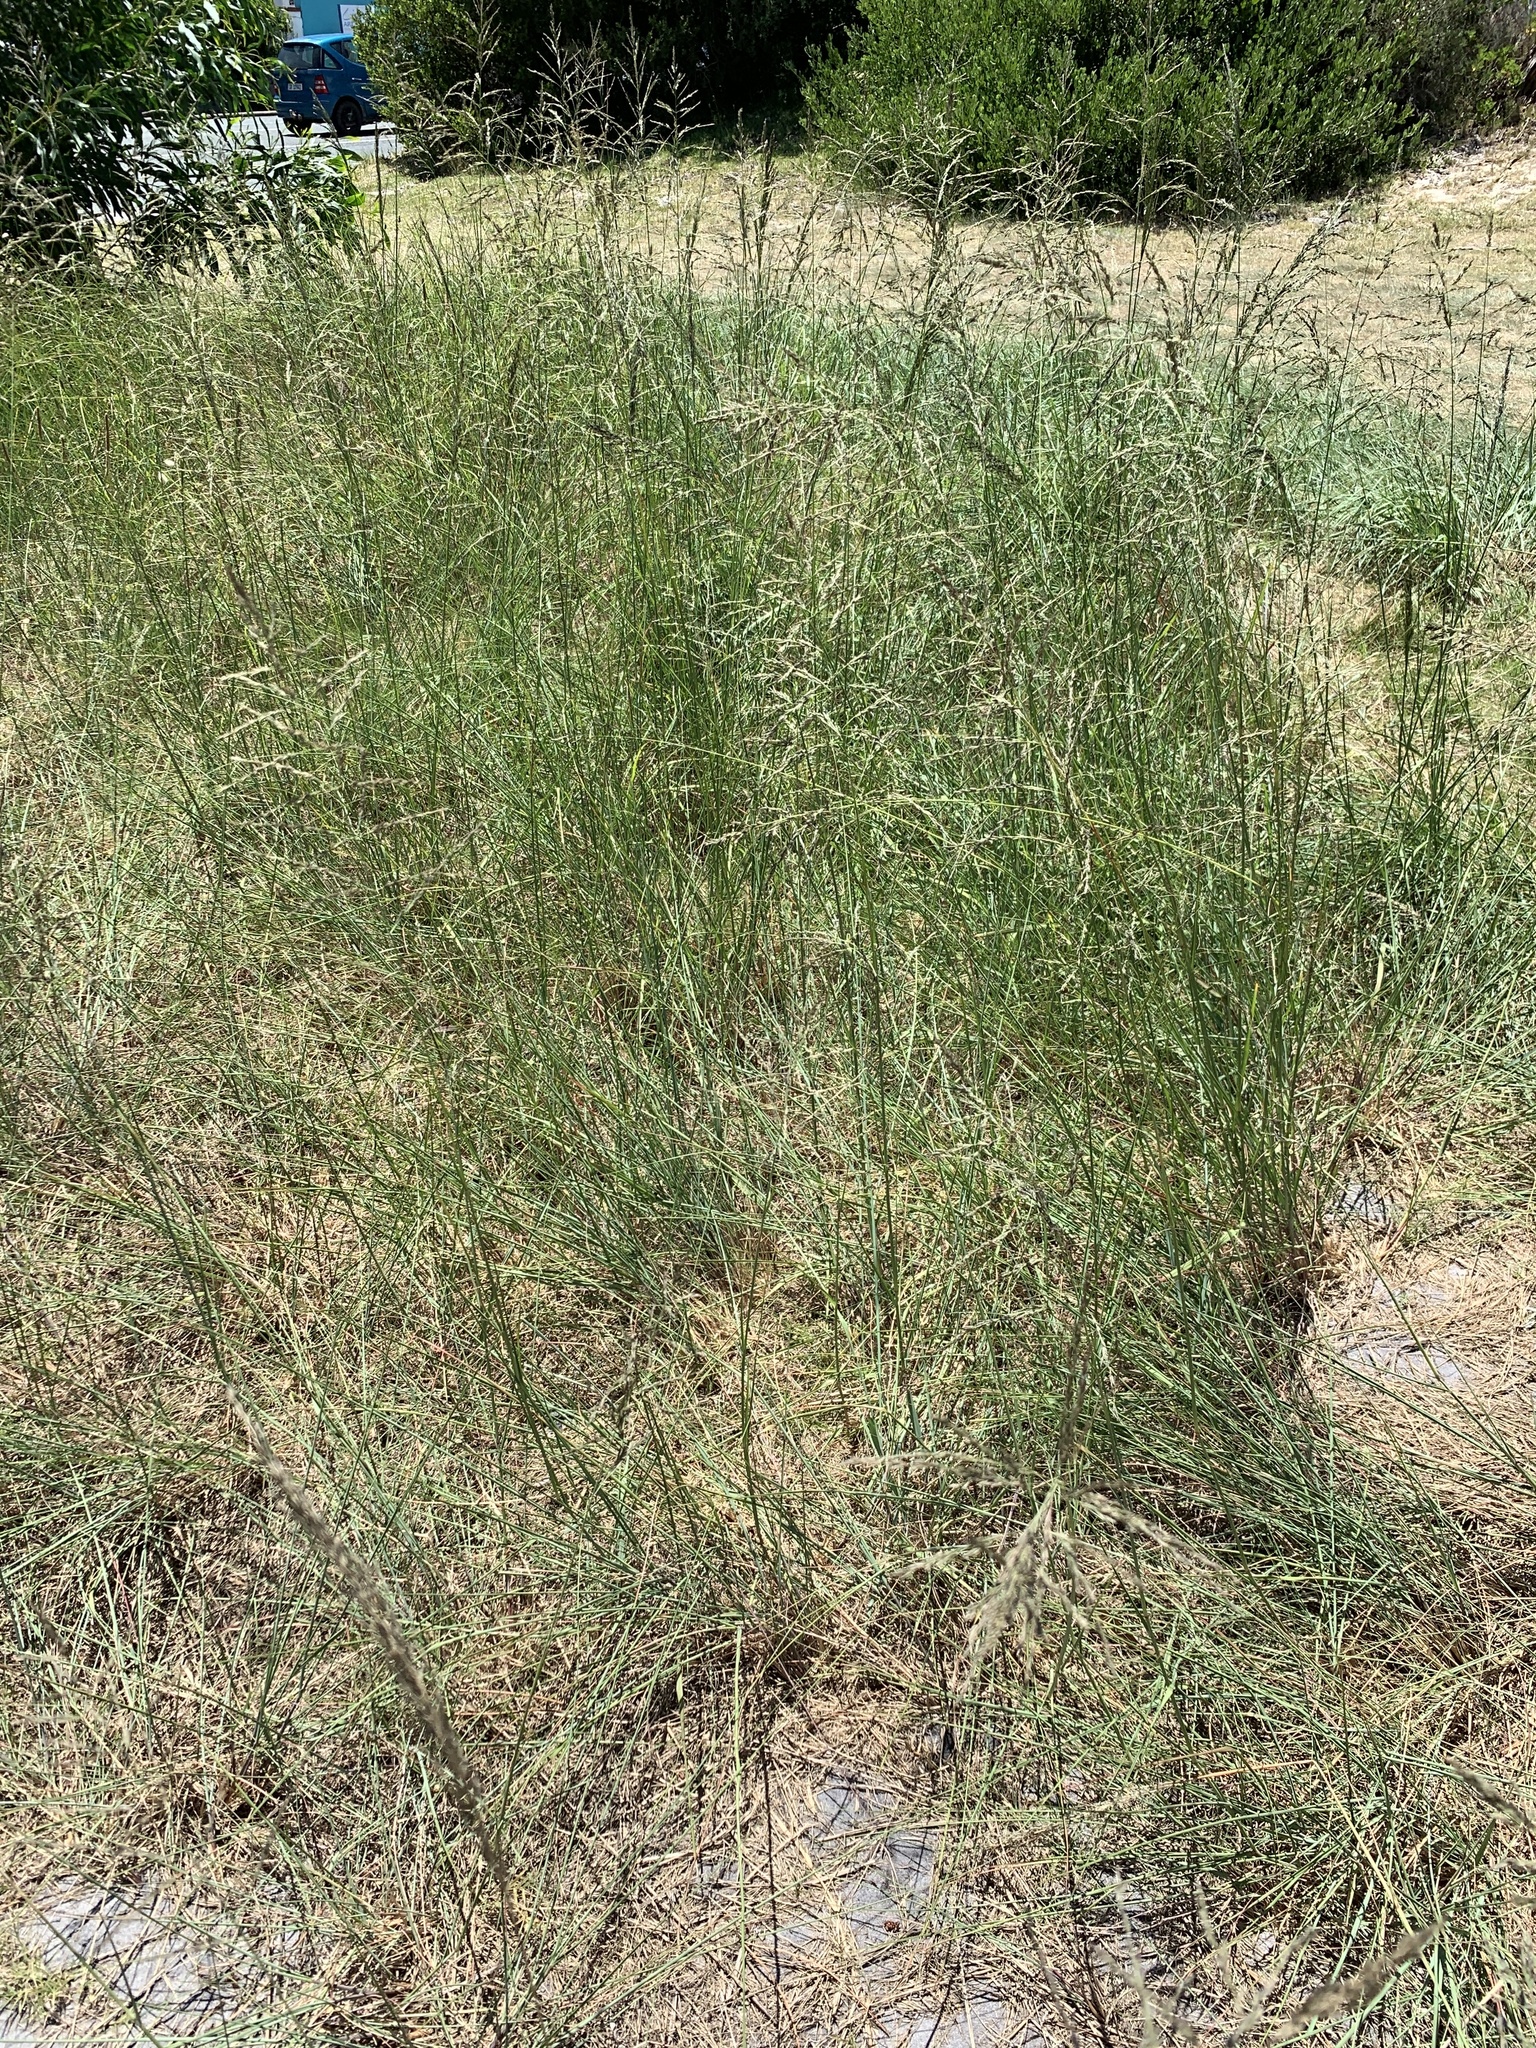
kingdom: Plantae
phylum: Tracheophyta
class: Liliopsida
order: Poales
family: Poaceae
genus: Eragrostis
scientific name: Eragrostis curvula
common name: African love-grass
